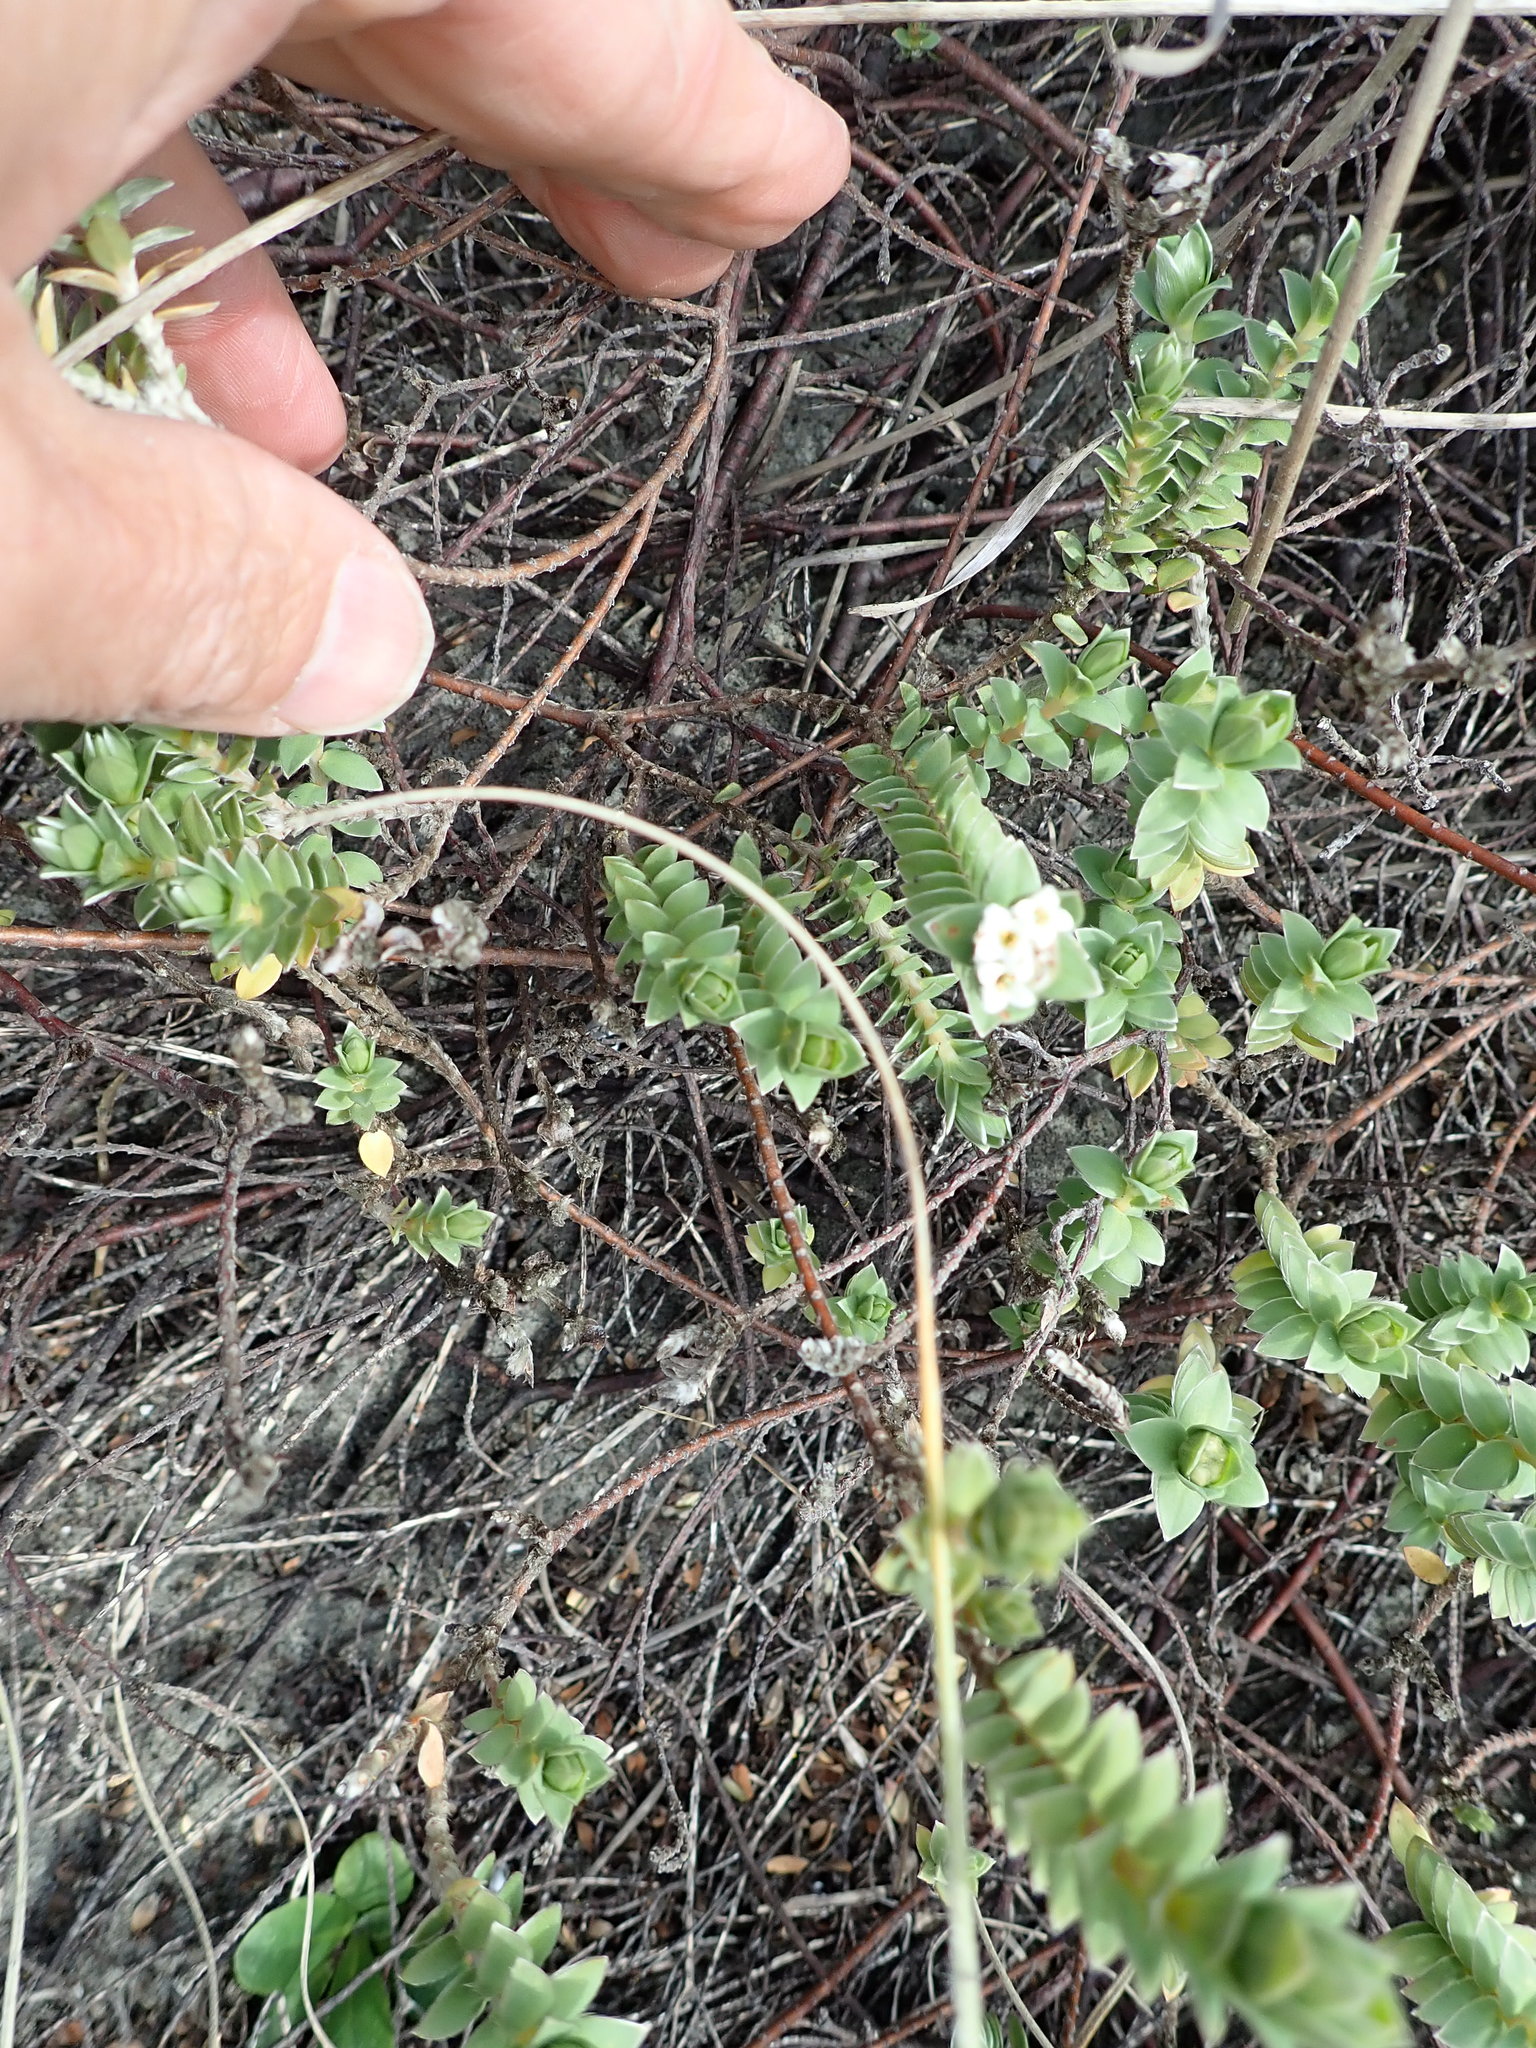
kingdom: Plantae
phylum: Tracheophyta
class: Magnoliopsida
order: Malvales
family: Thymelaeaceae
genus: Pimelea
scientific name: Pimelea villosa
